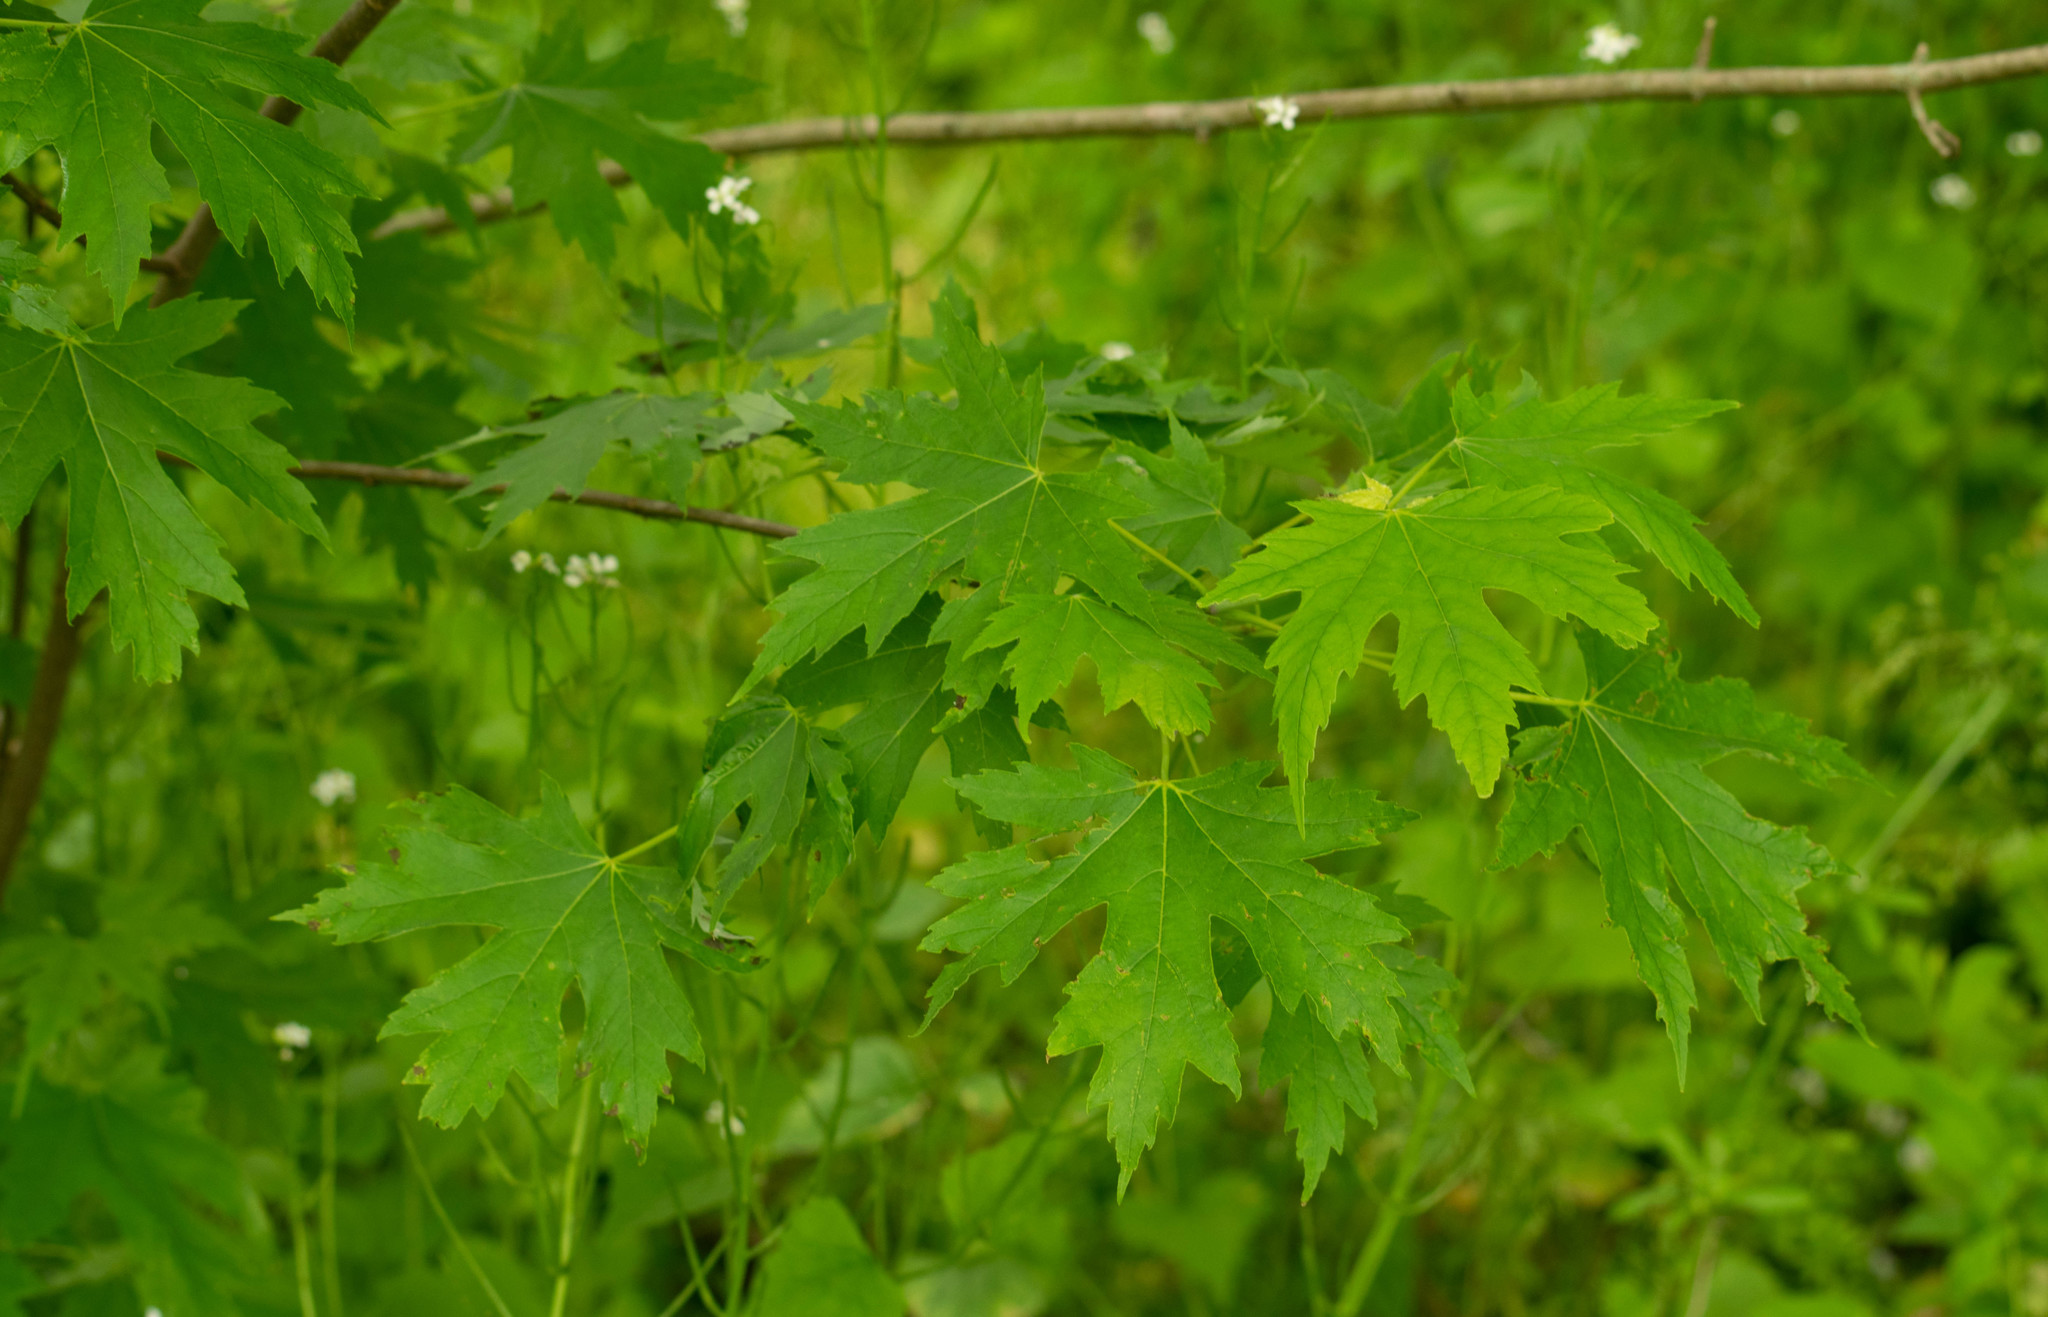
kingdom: Plantae
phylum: Tracheophyta
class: Magnoliopsida
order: Sapindales
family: Sapindaceae
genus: Acer
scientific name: Acer saccharinum
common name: Silver maple
